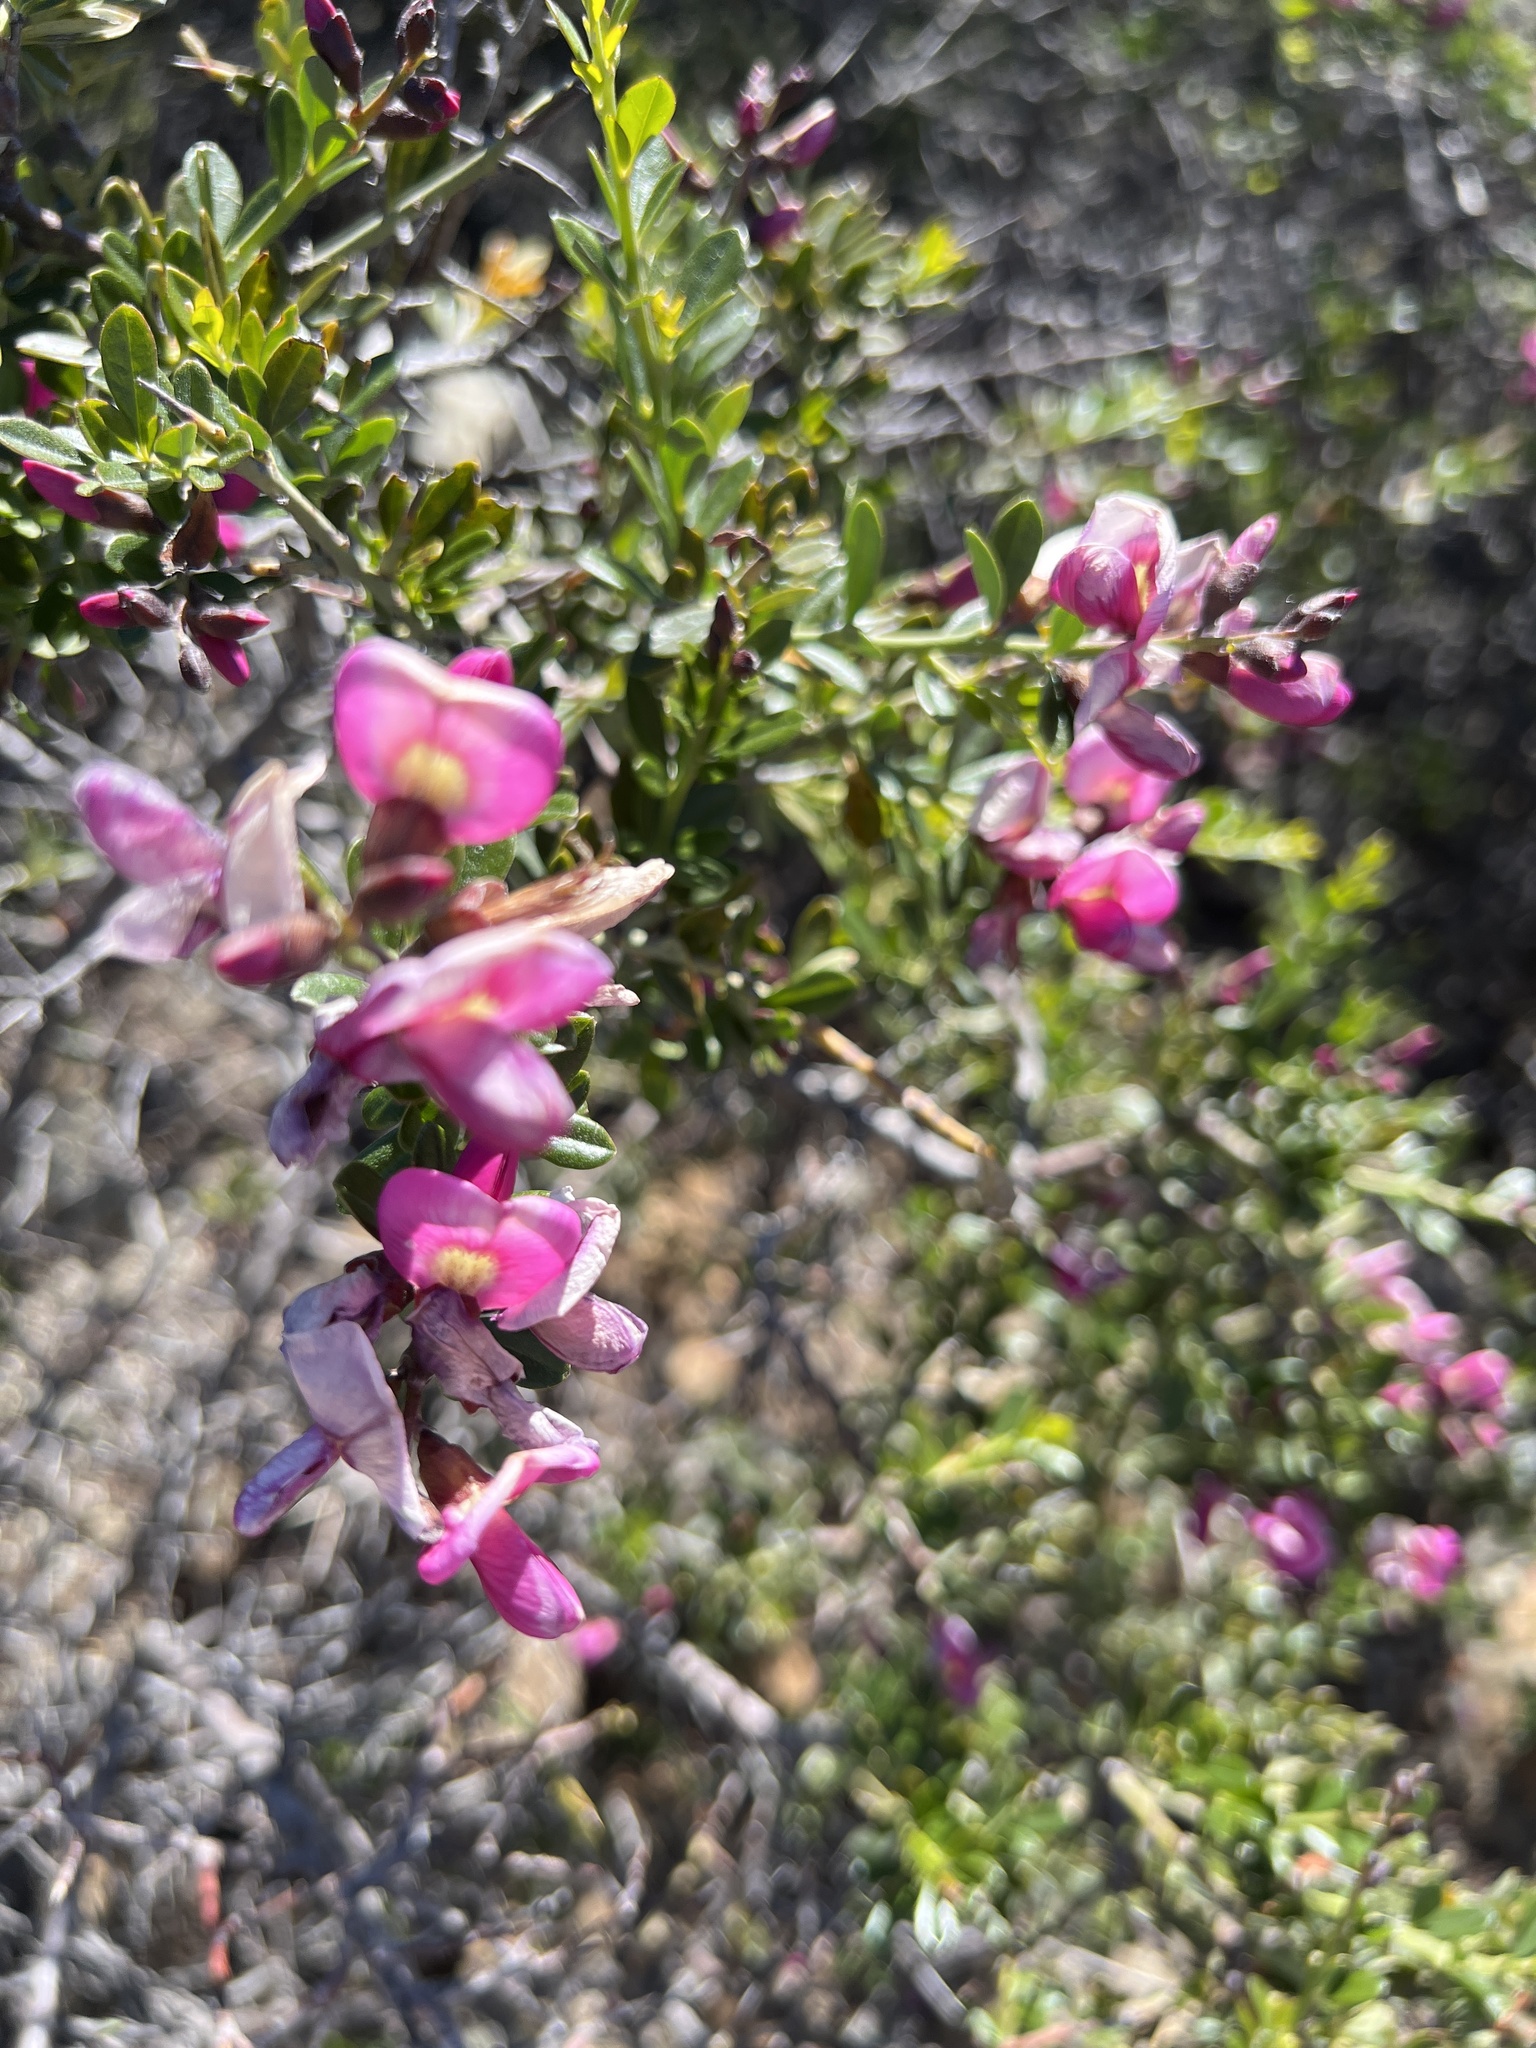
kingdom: Plantae
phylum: Tracheophyta
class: Magnoliopsida
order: Fabales
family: Fabaceae
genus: Pickeringia
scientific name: Pickeringia montana
